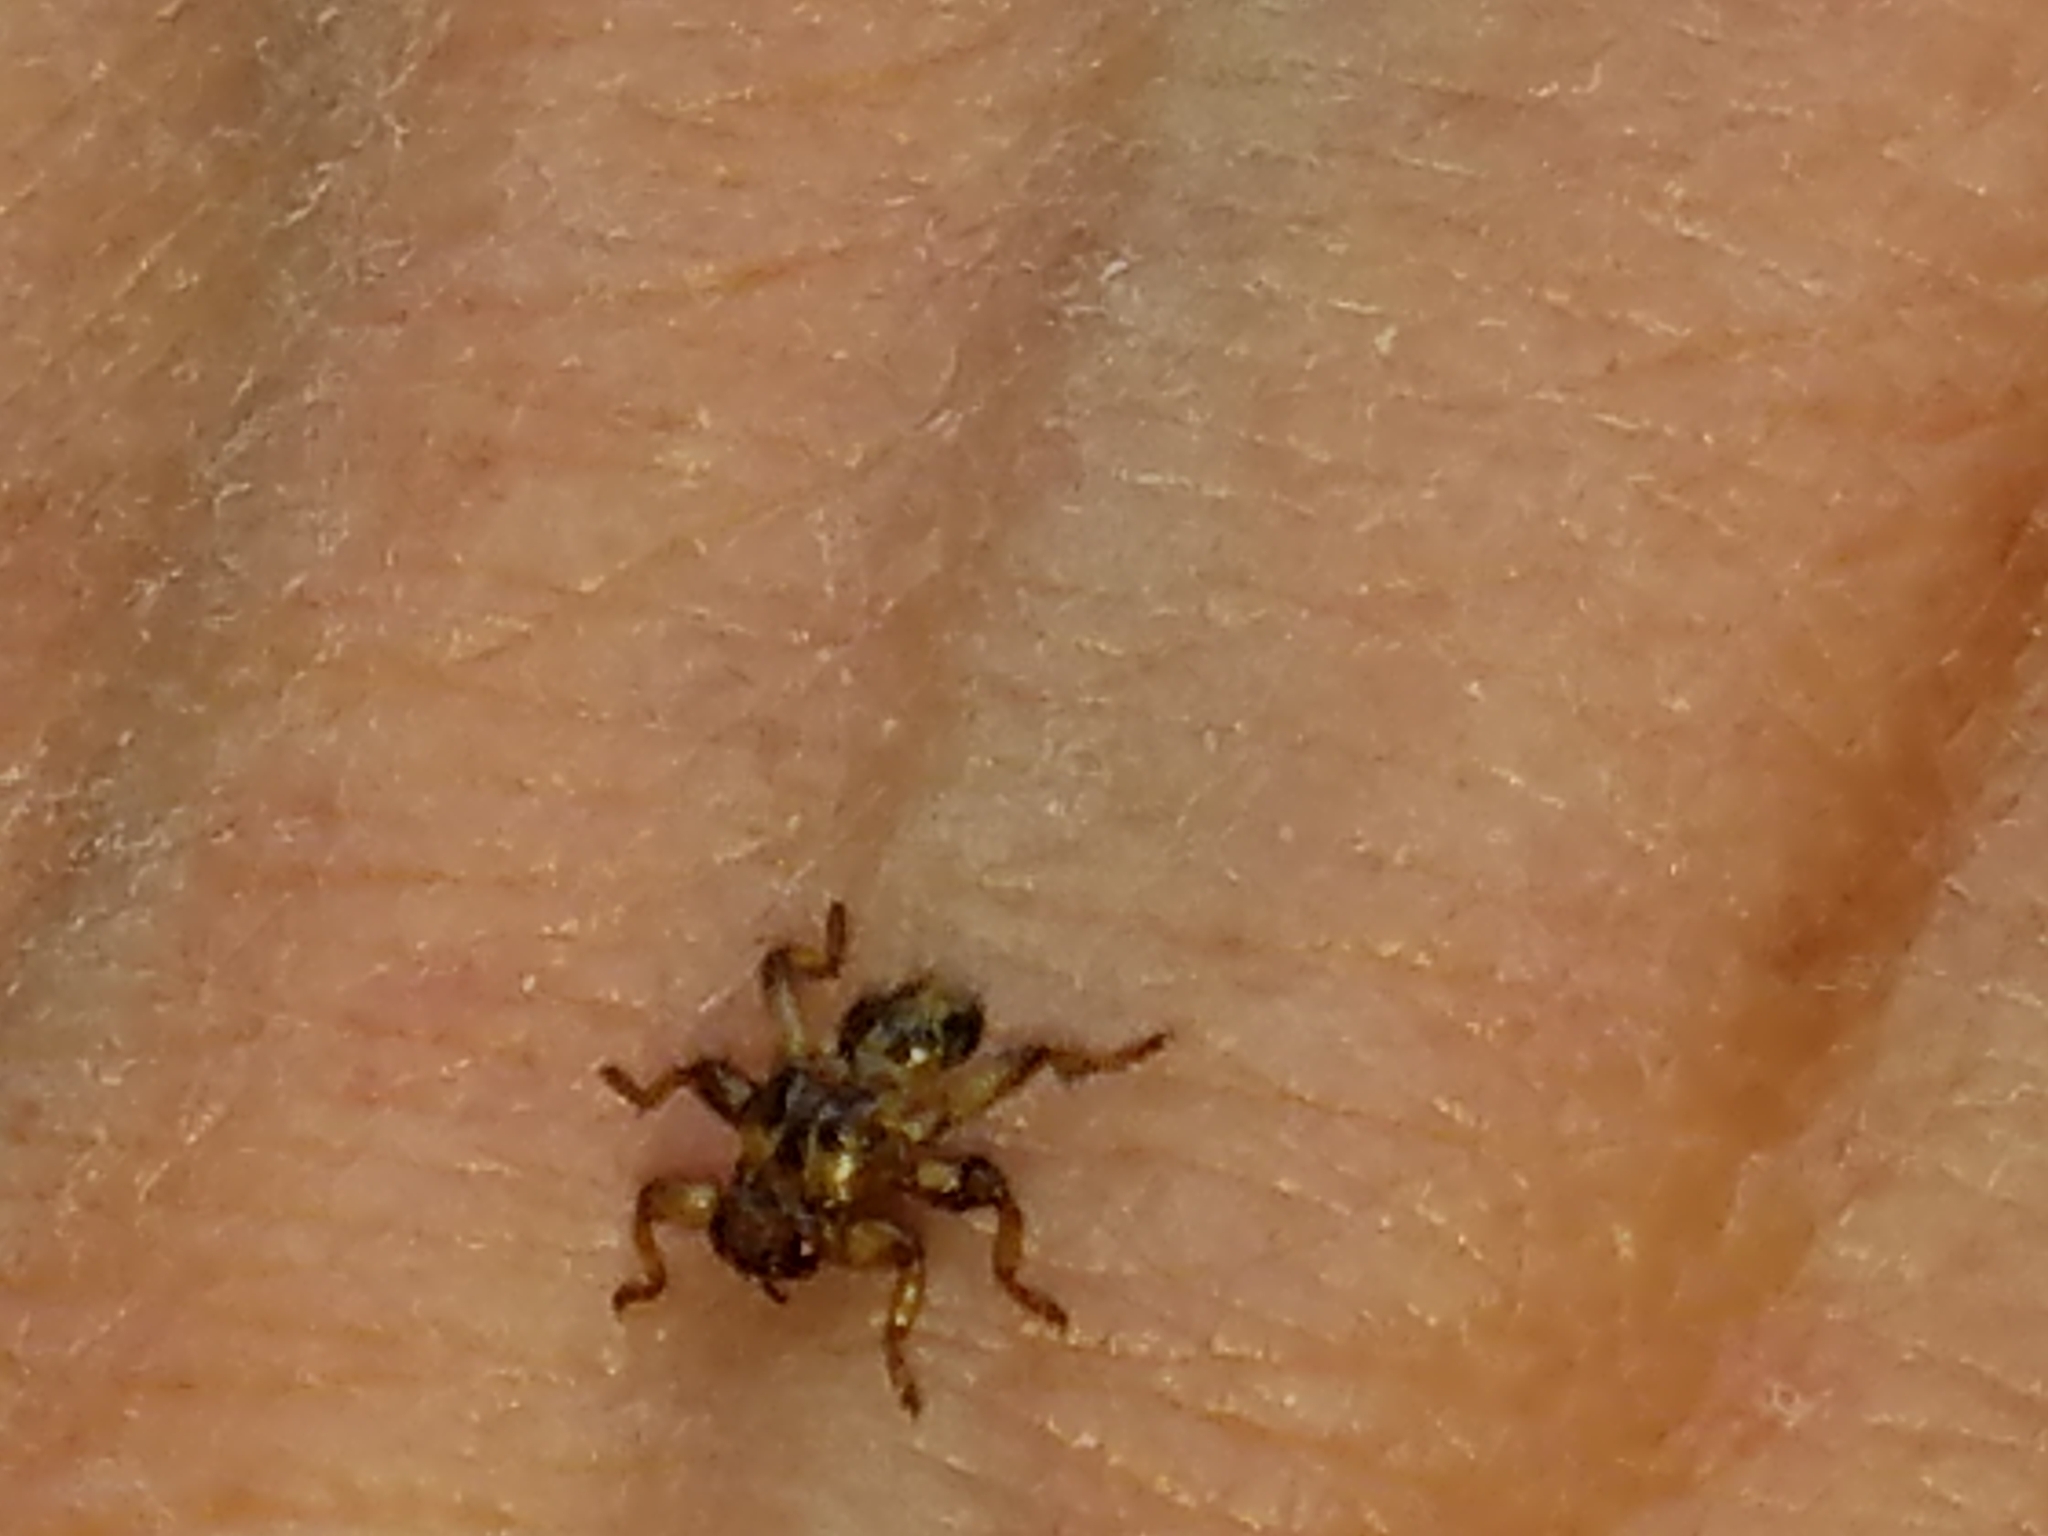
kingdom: Animalia
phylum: Arthropoda
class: Insecta
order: Diptera
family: Hippoboscidae
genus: Lipoptena
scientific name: Lipoptena cervi
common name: Deer ked
